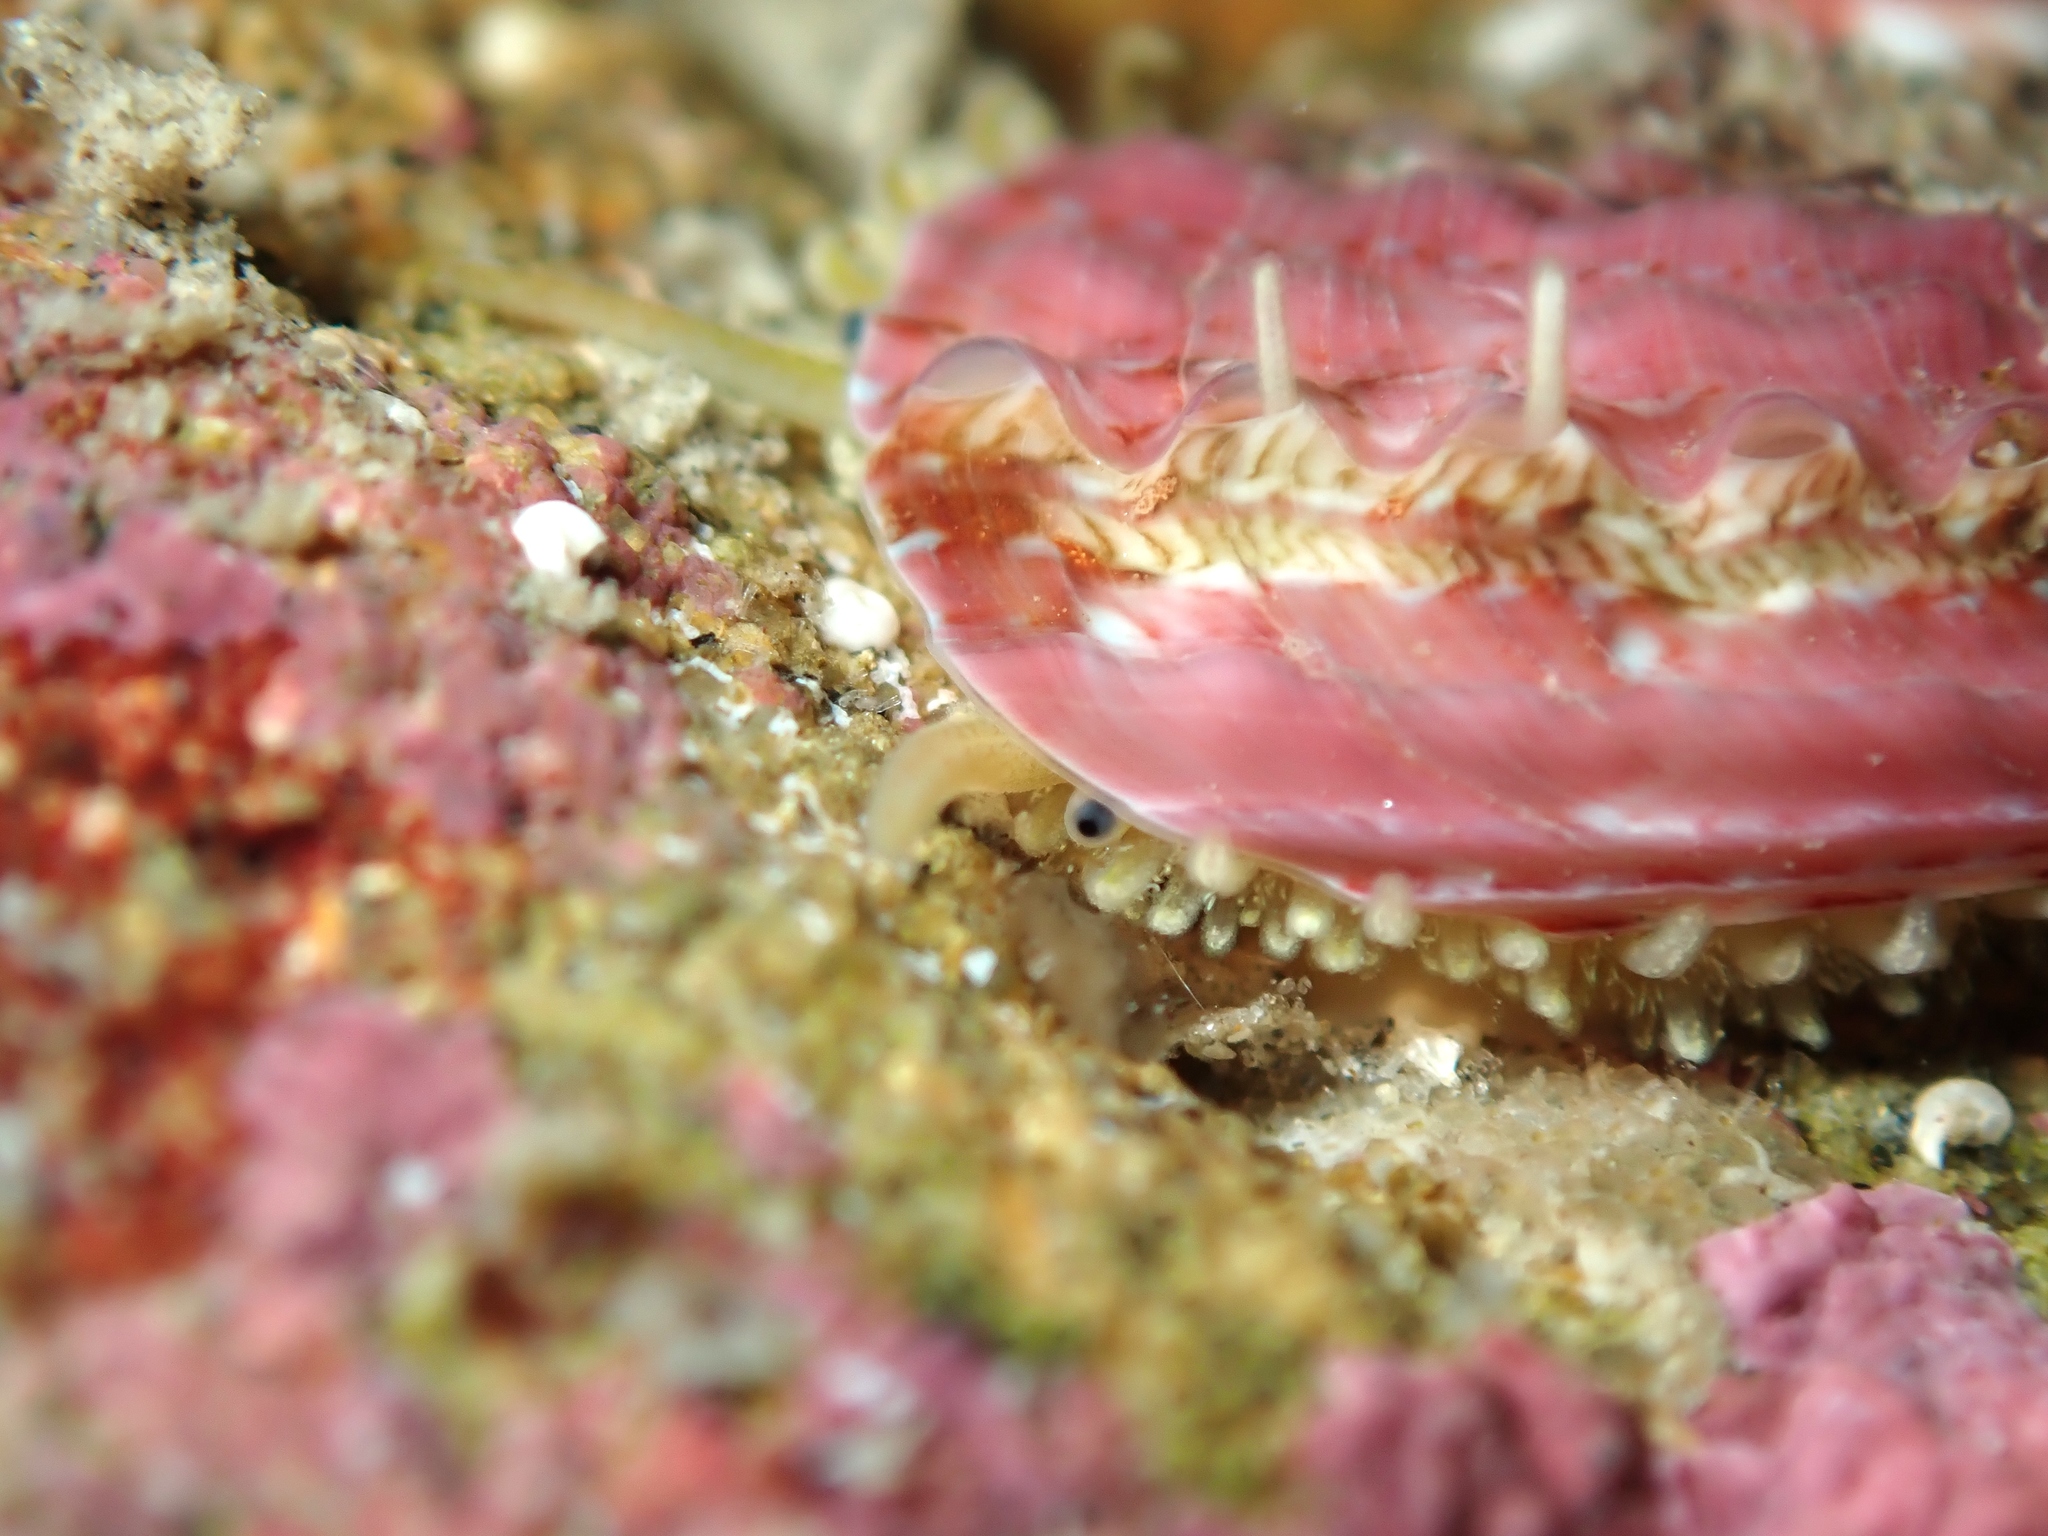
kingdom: Animalia
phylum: Mollusca
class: Gastropoda
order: Lepetellida
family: Haliotidae
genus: Haliotis
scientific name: Haliotis australis
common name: Silver abalone
